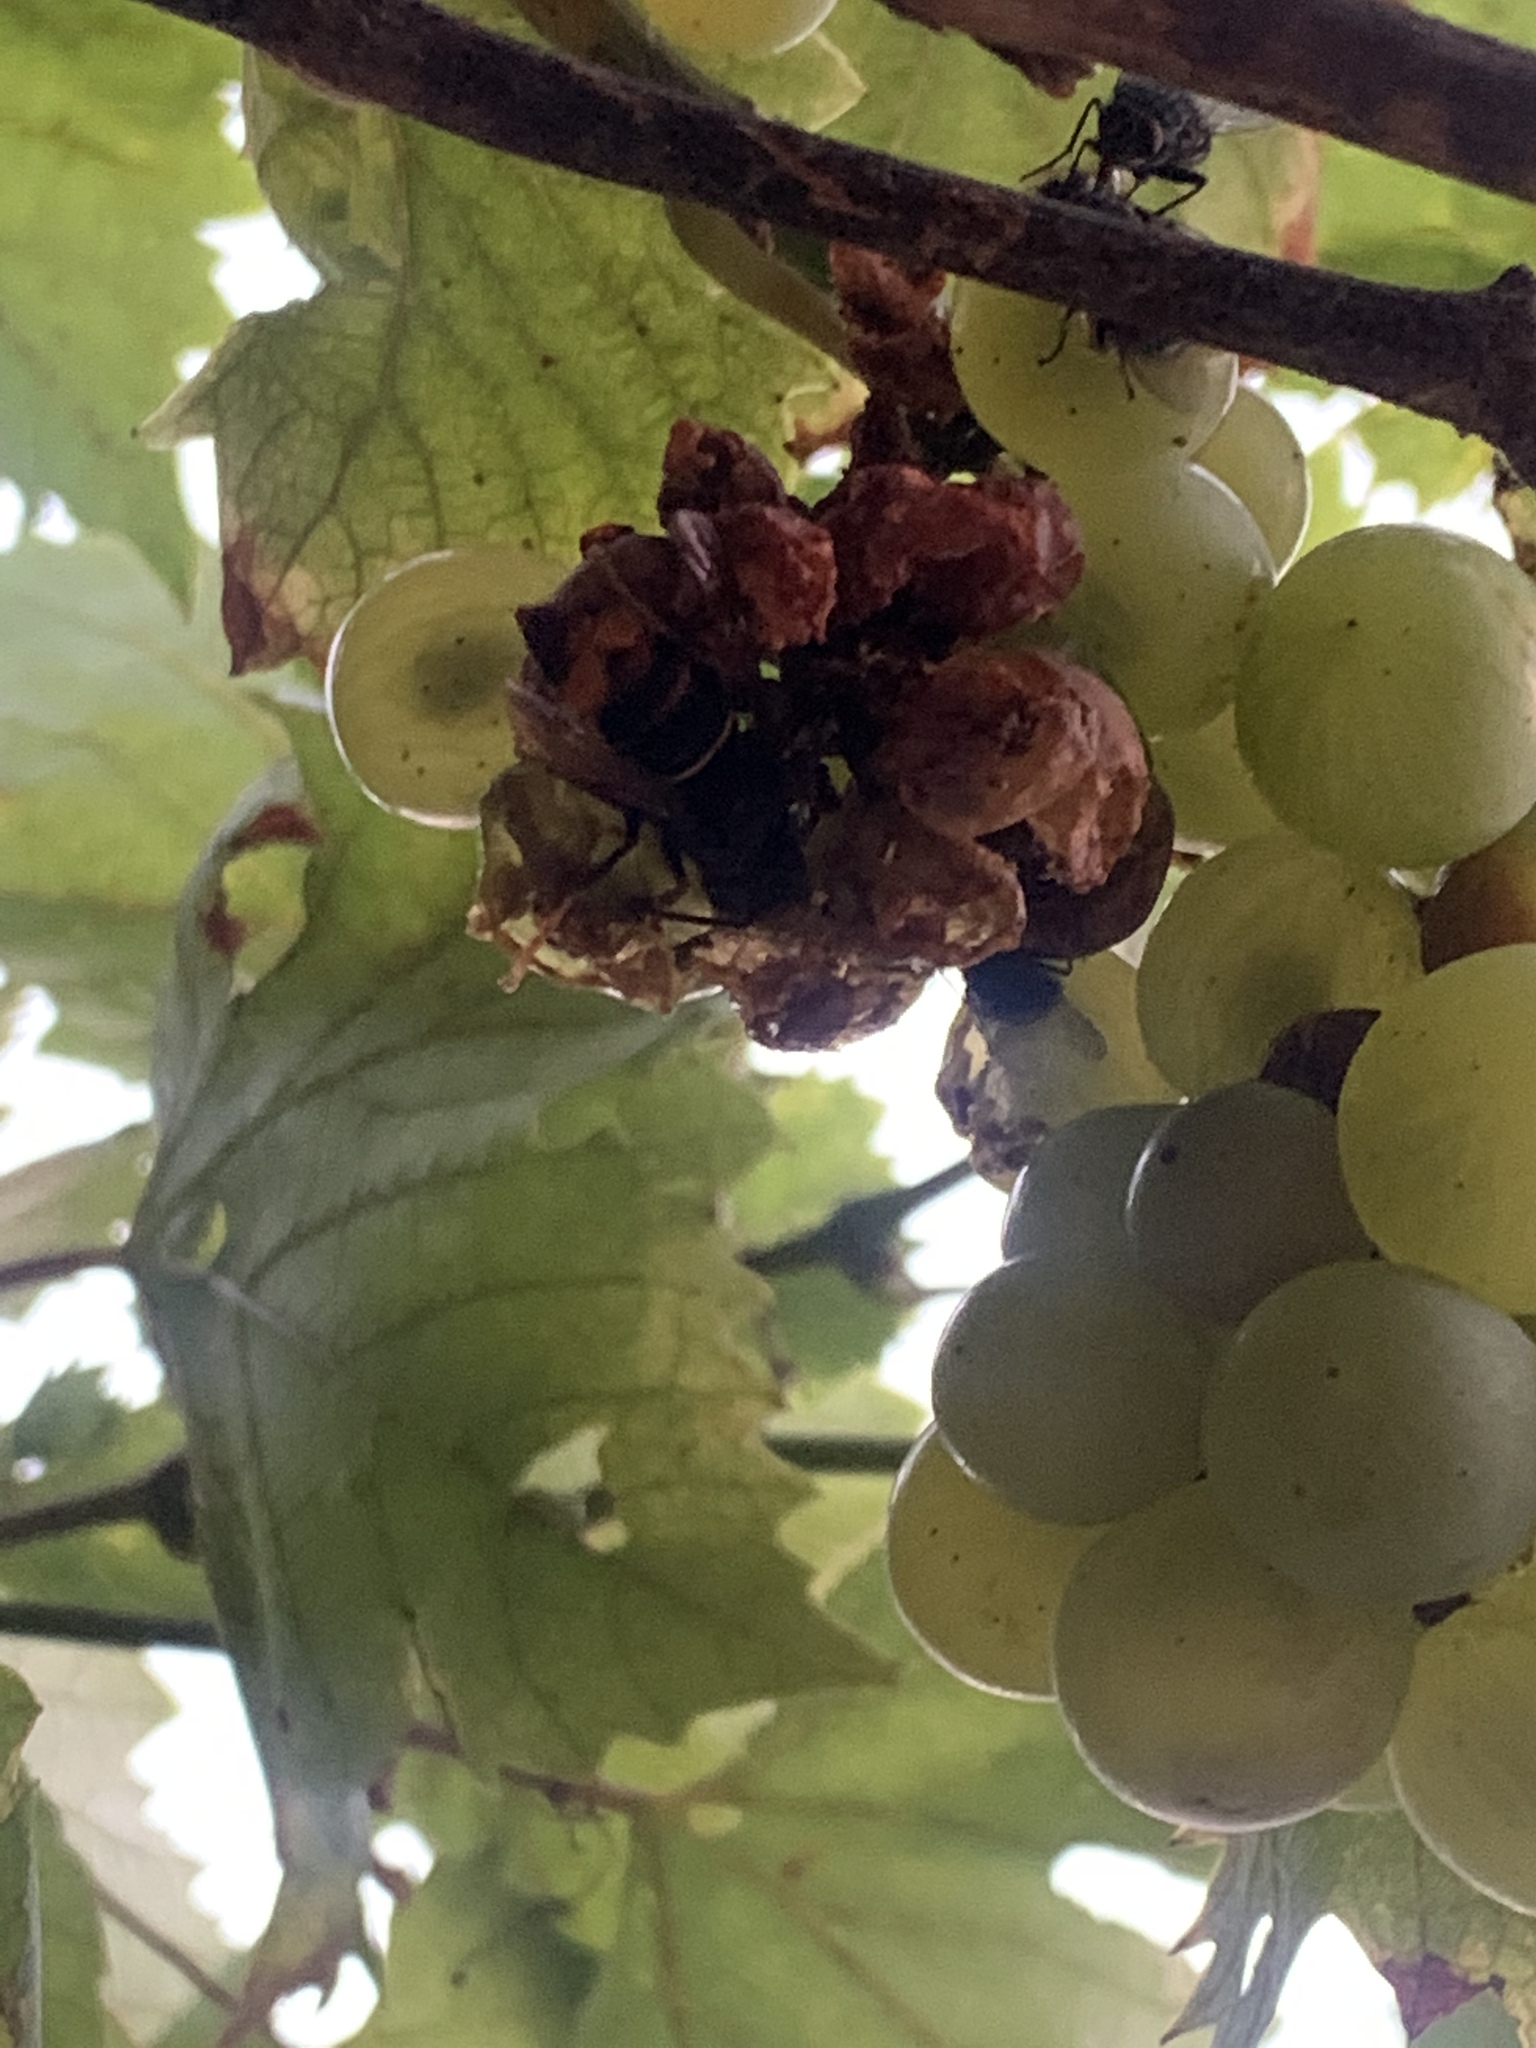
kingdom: Animalia
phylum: Arthropoda
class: Insecta
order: Hymenoptera
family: Vespidae
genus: Vespa
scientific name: Vespa velutina
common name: Asian hornet
